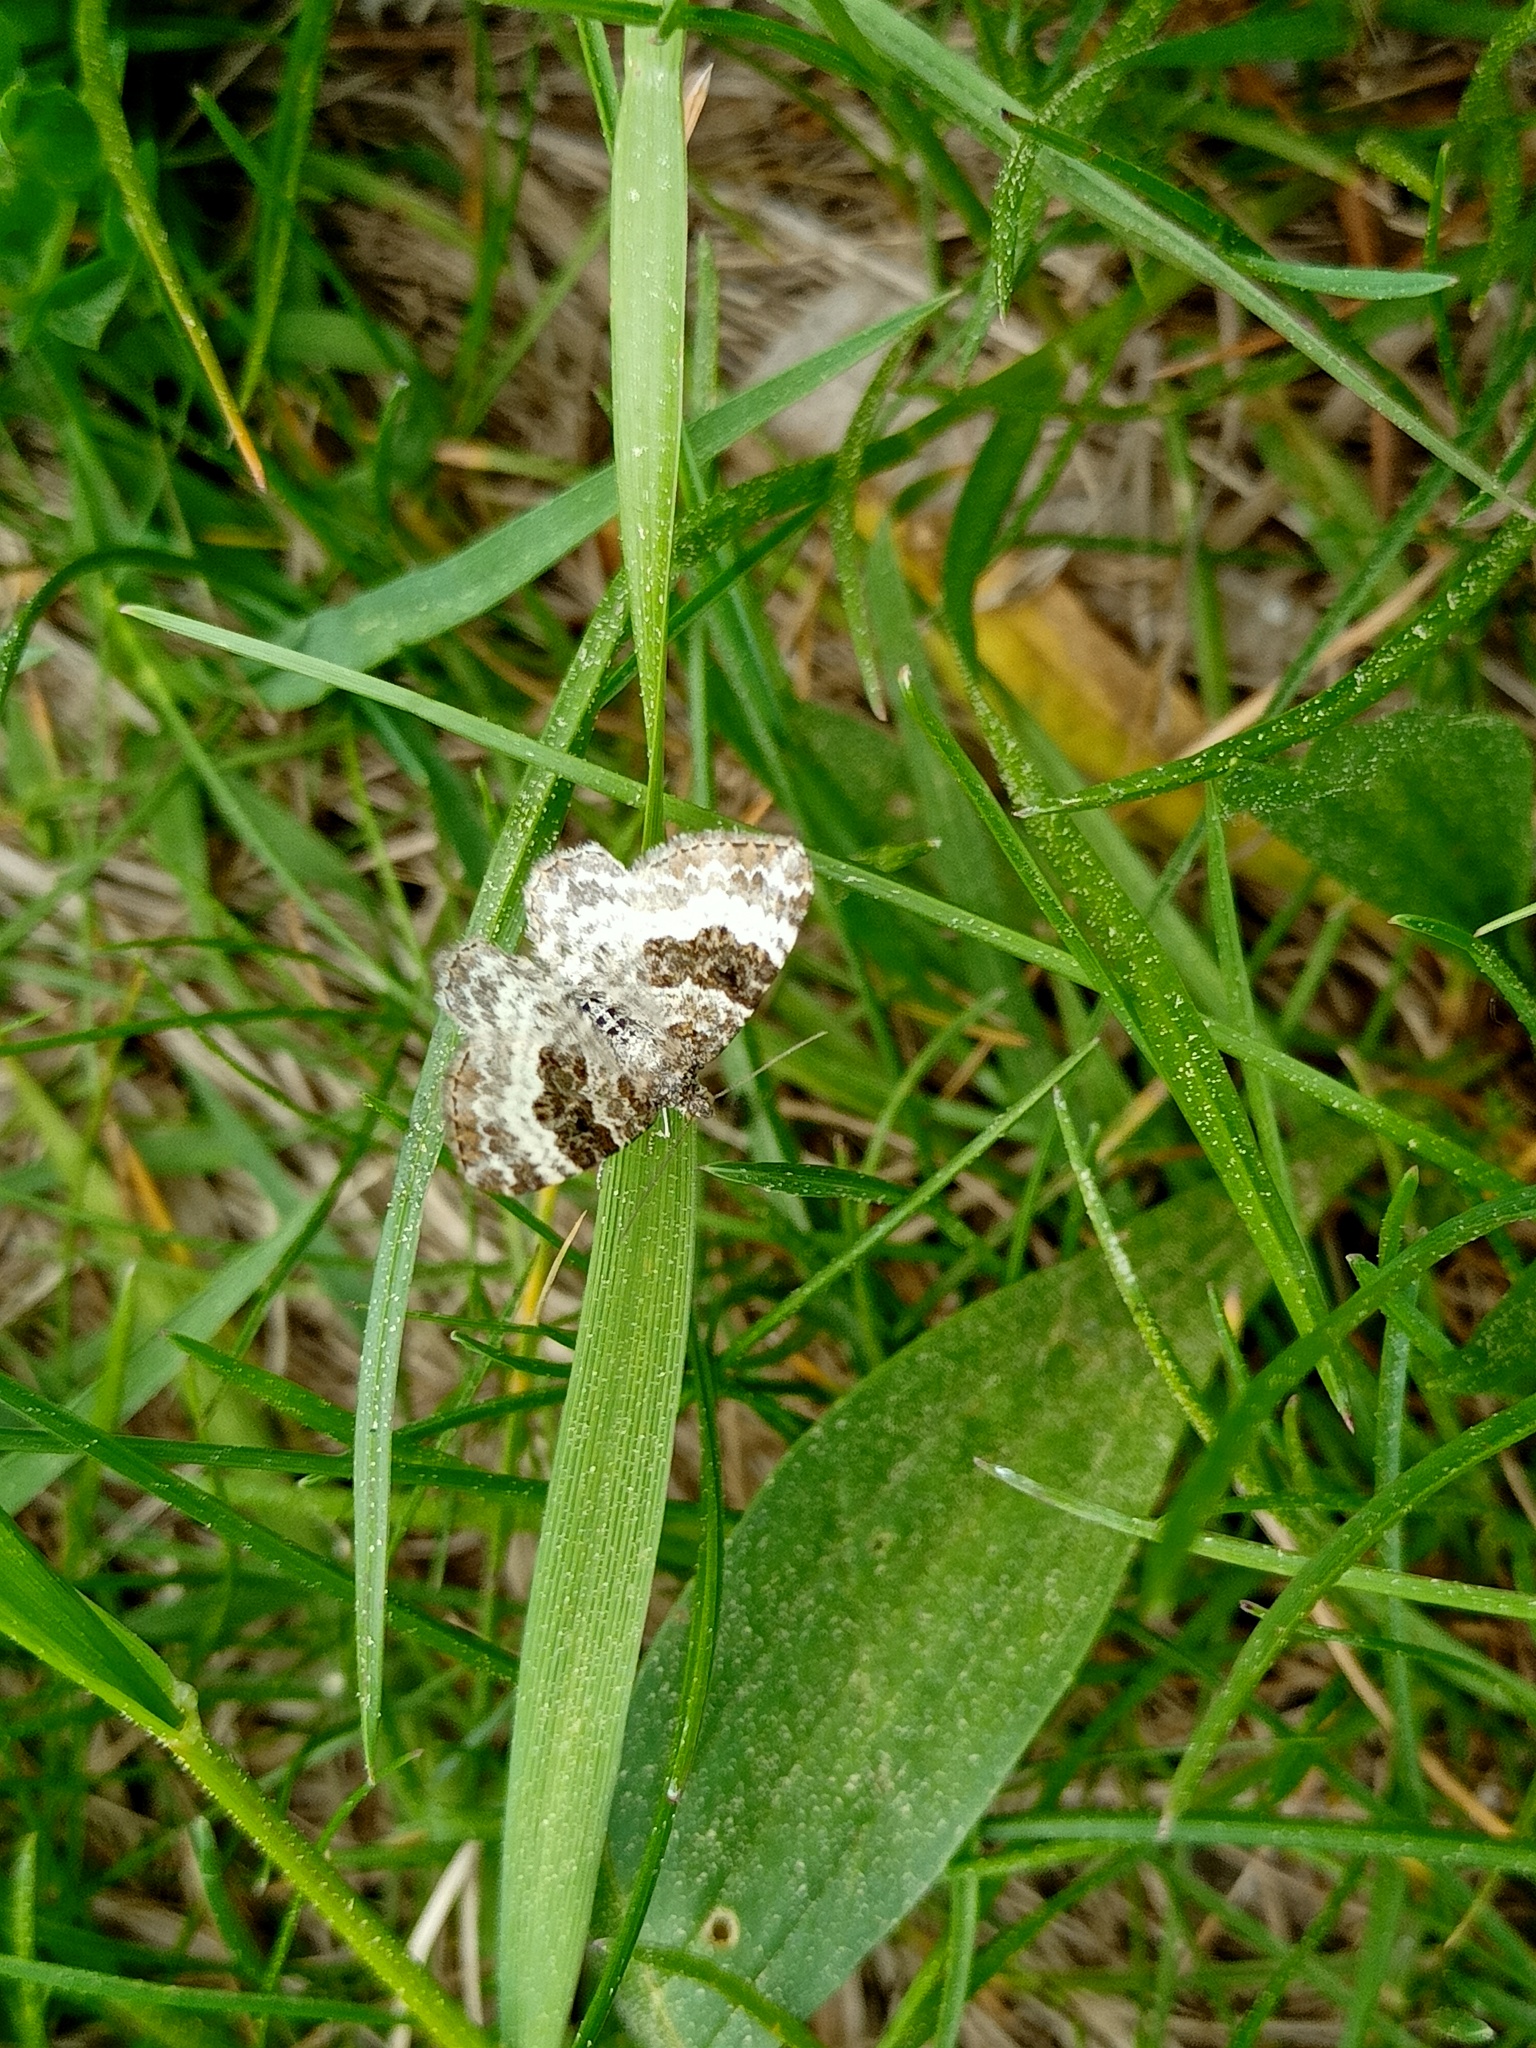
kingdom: Animalia
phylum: Arthropoda
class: Insecta
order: Lepidoptera
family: Geometridae
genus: Epirrhoe
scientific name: Epirrhoe alternata
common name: Common carpet
